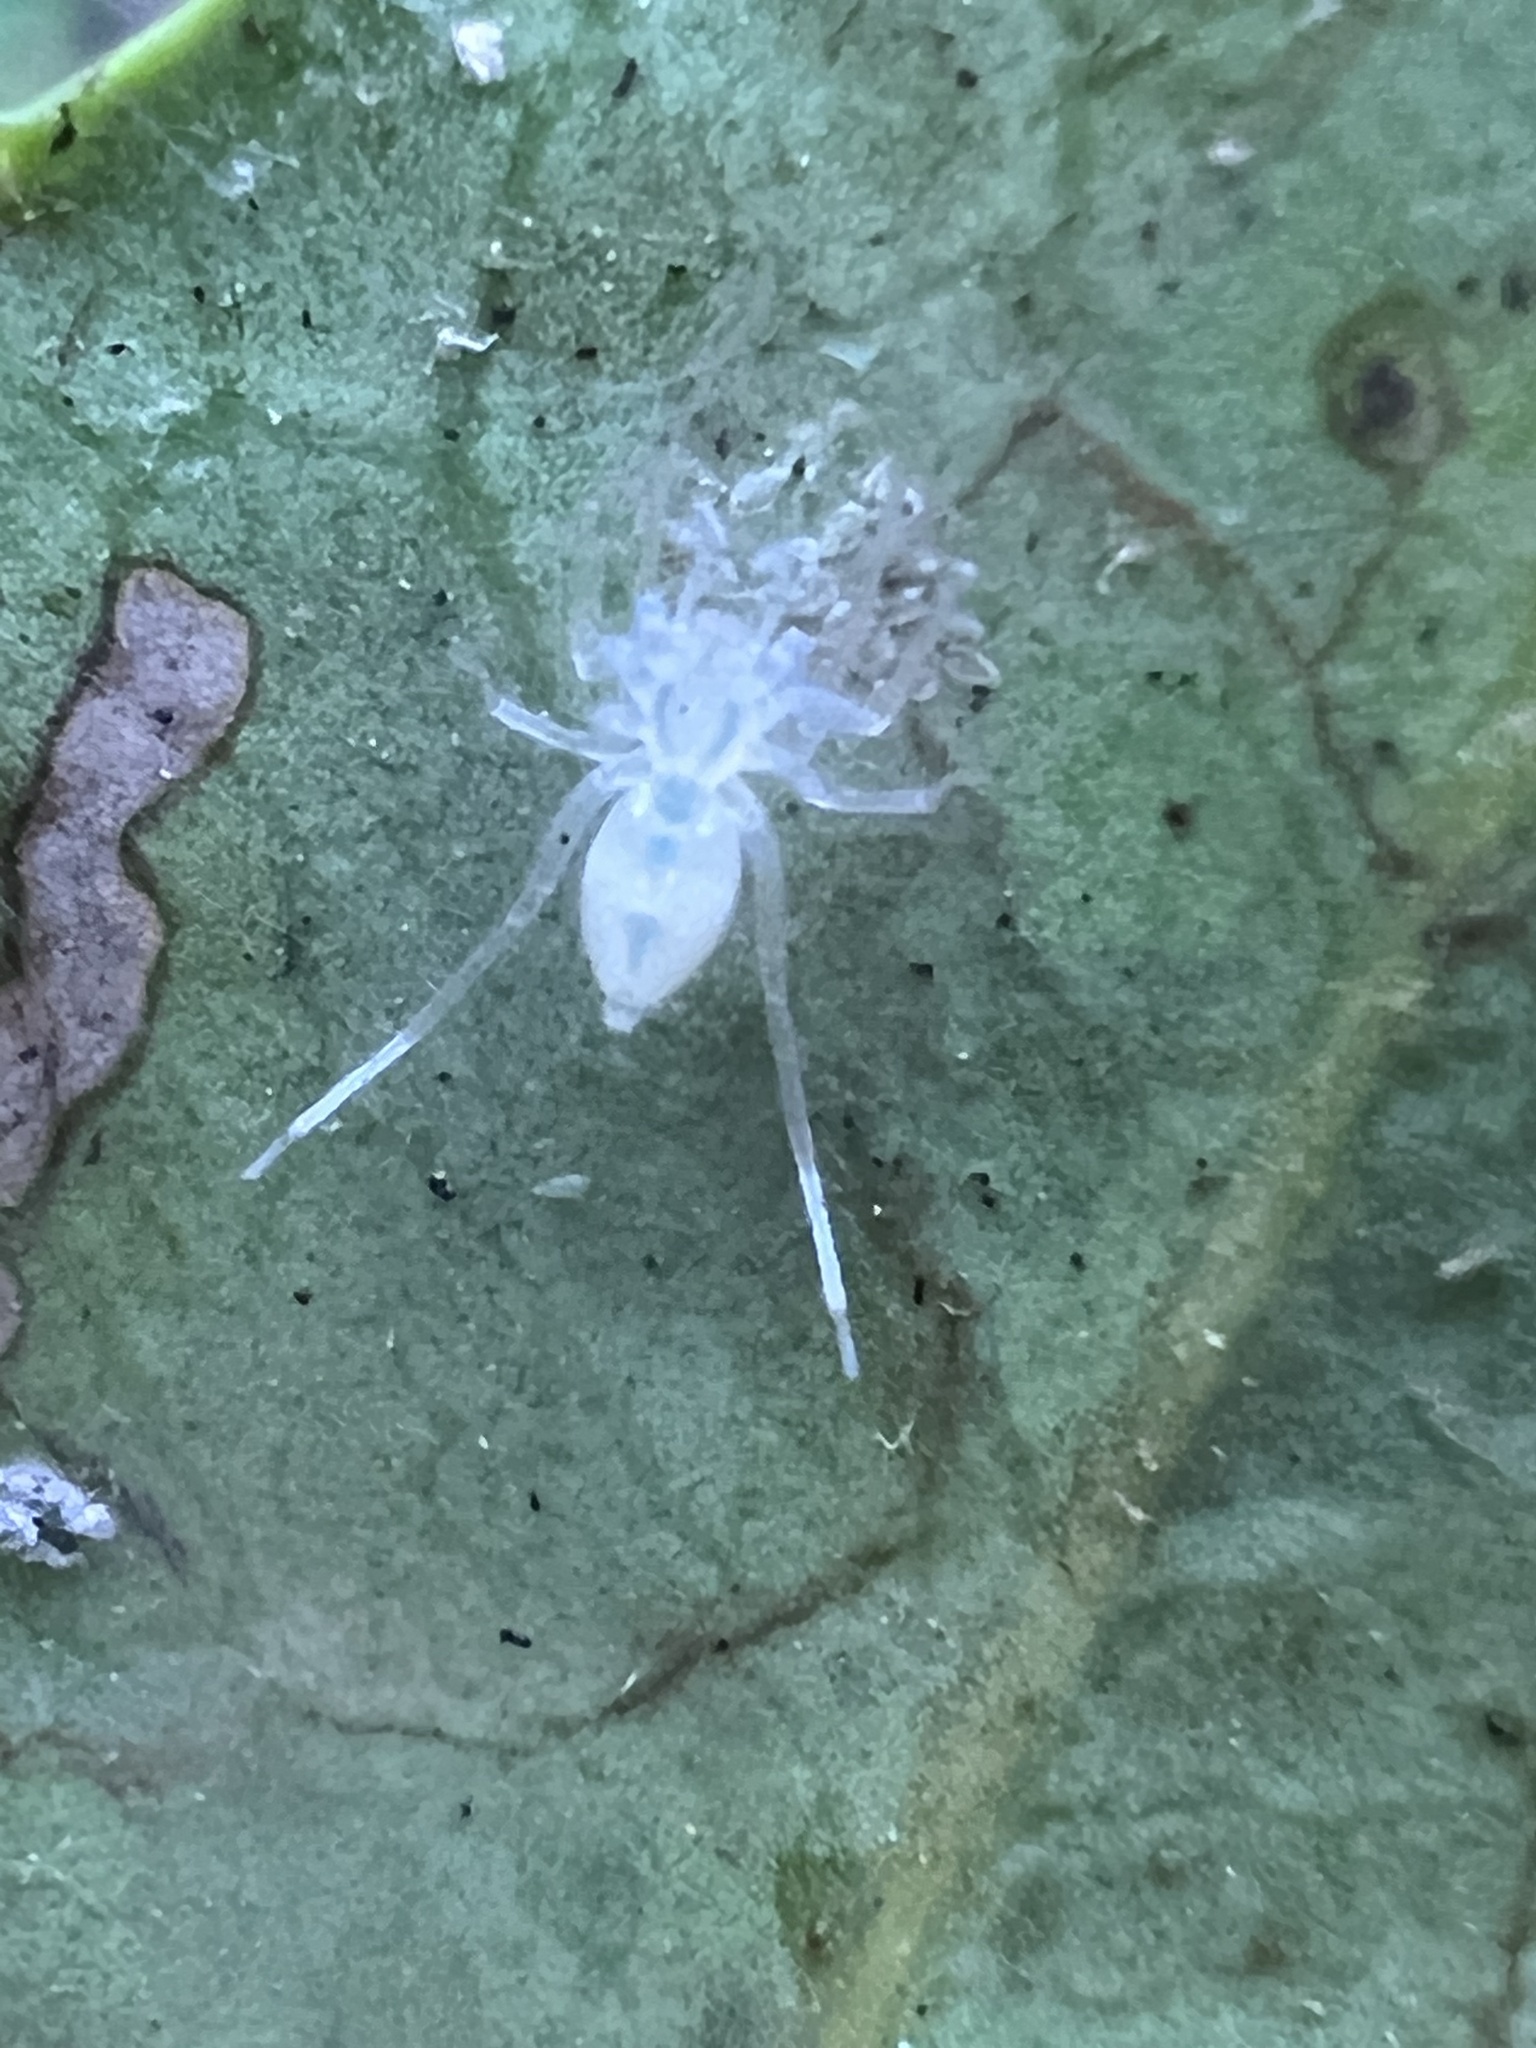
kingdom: Animalia
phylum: Arthropoda
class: Arachnida
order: Araneae
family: Anyphaenidae
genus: Wulfila
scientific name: Wulfila albens
